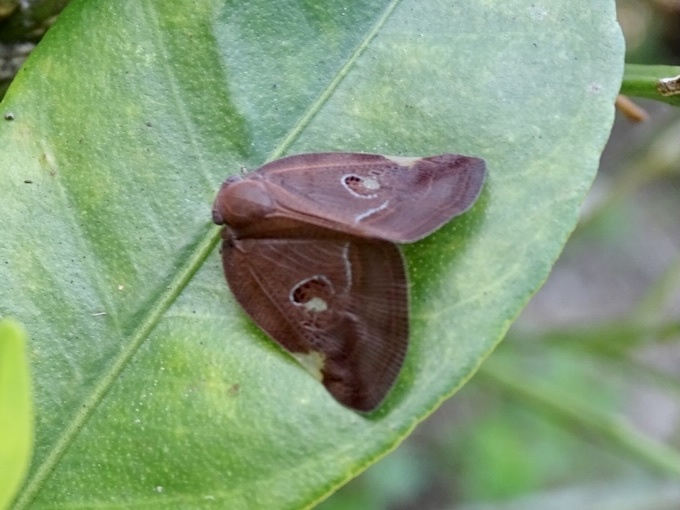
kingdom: Animalia
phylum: Arthropoda
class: Insecta
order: Hemiptera
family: Ricaniidae
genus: Ricania
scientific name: Ricania guttata
